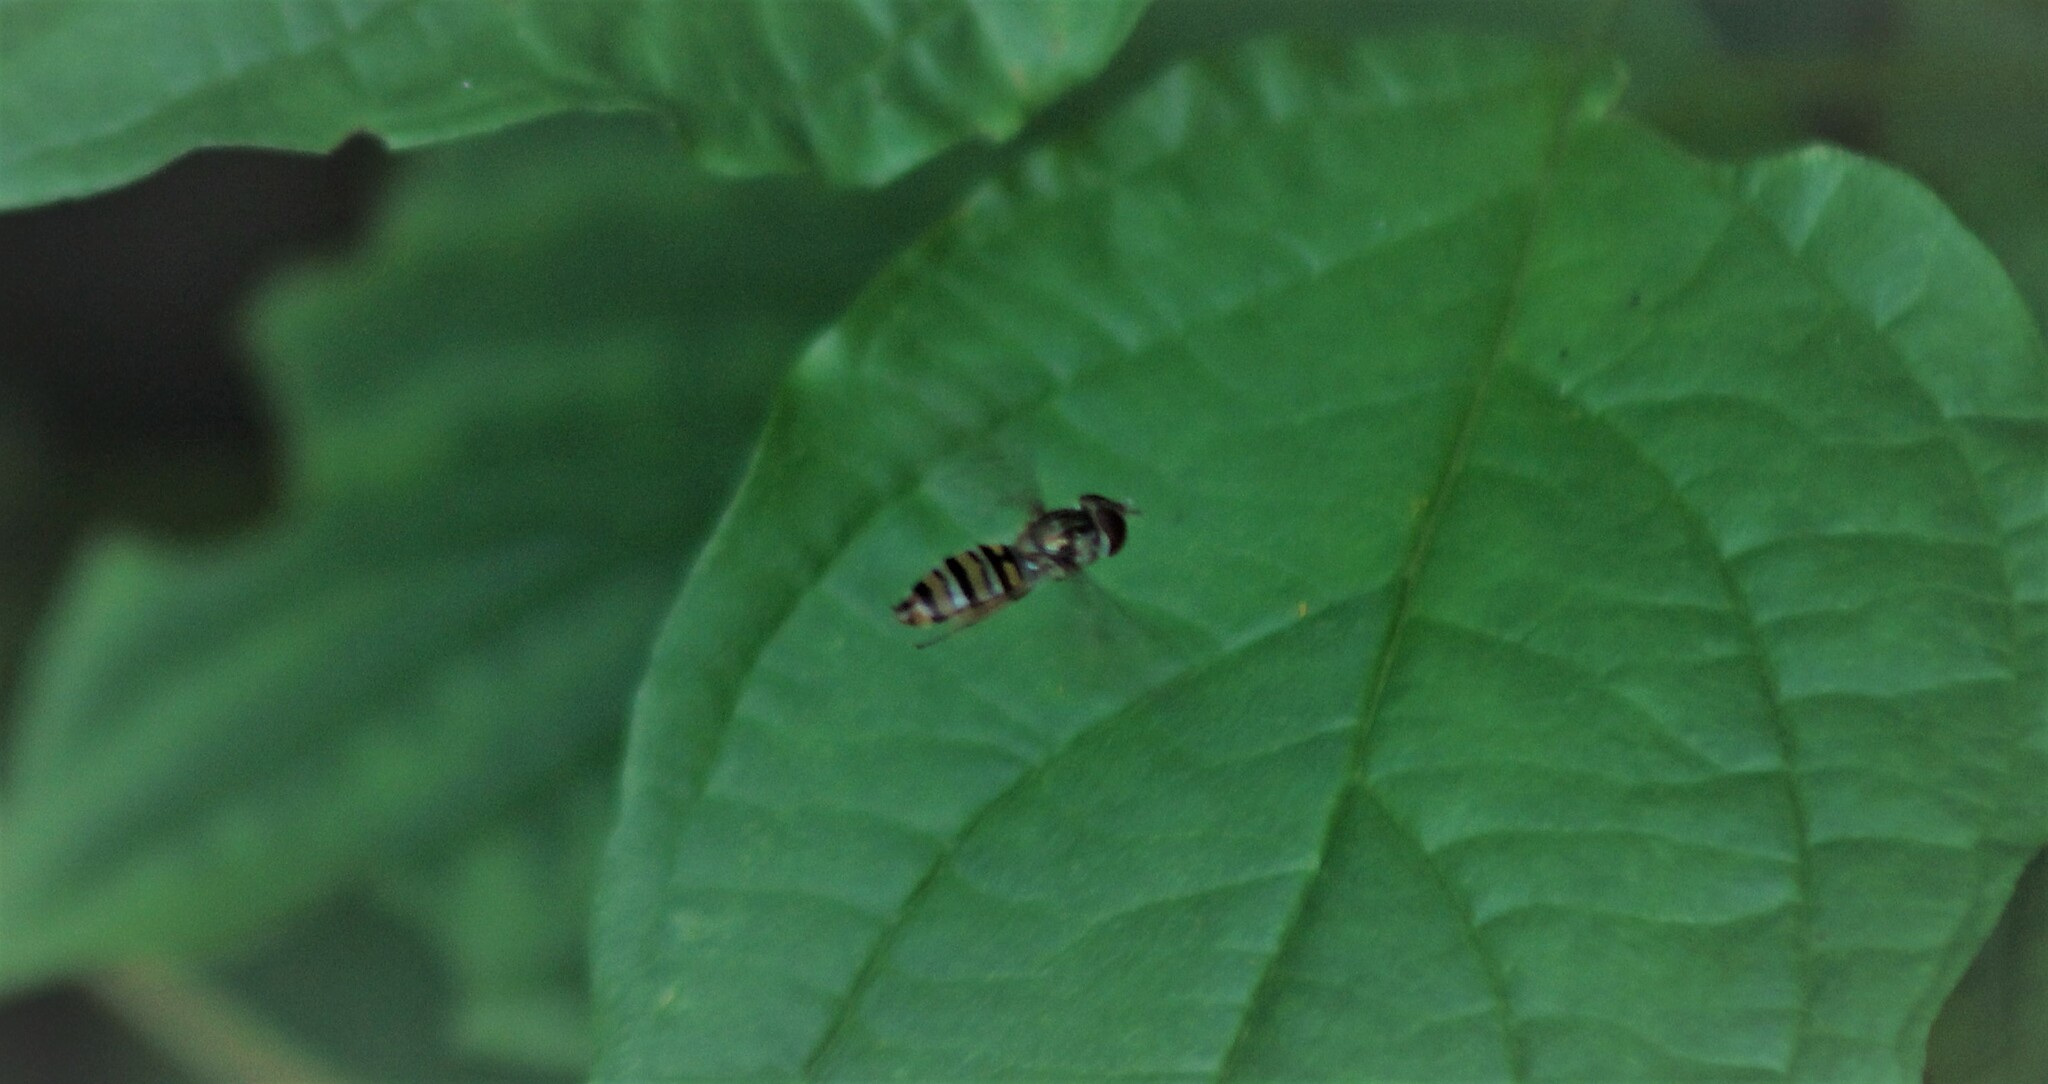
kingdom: Animalia
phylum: Arthropoda
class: Insecta
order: Diptera
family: Syrphidae
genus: Episyrphus
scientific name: Episyrphus balteatus
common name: Marmalade hoverfly
